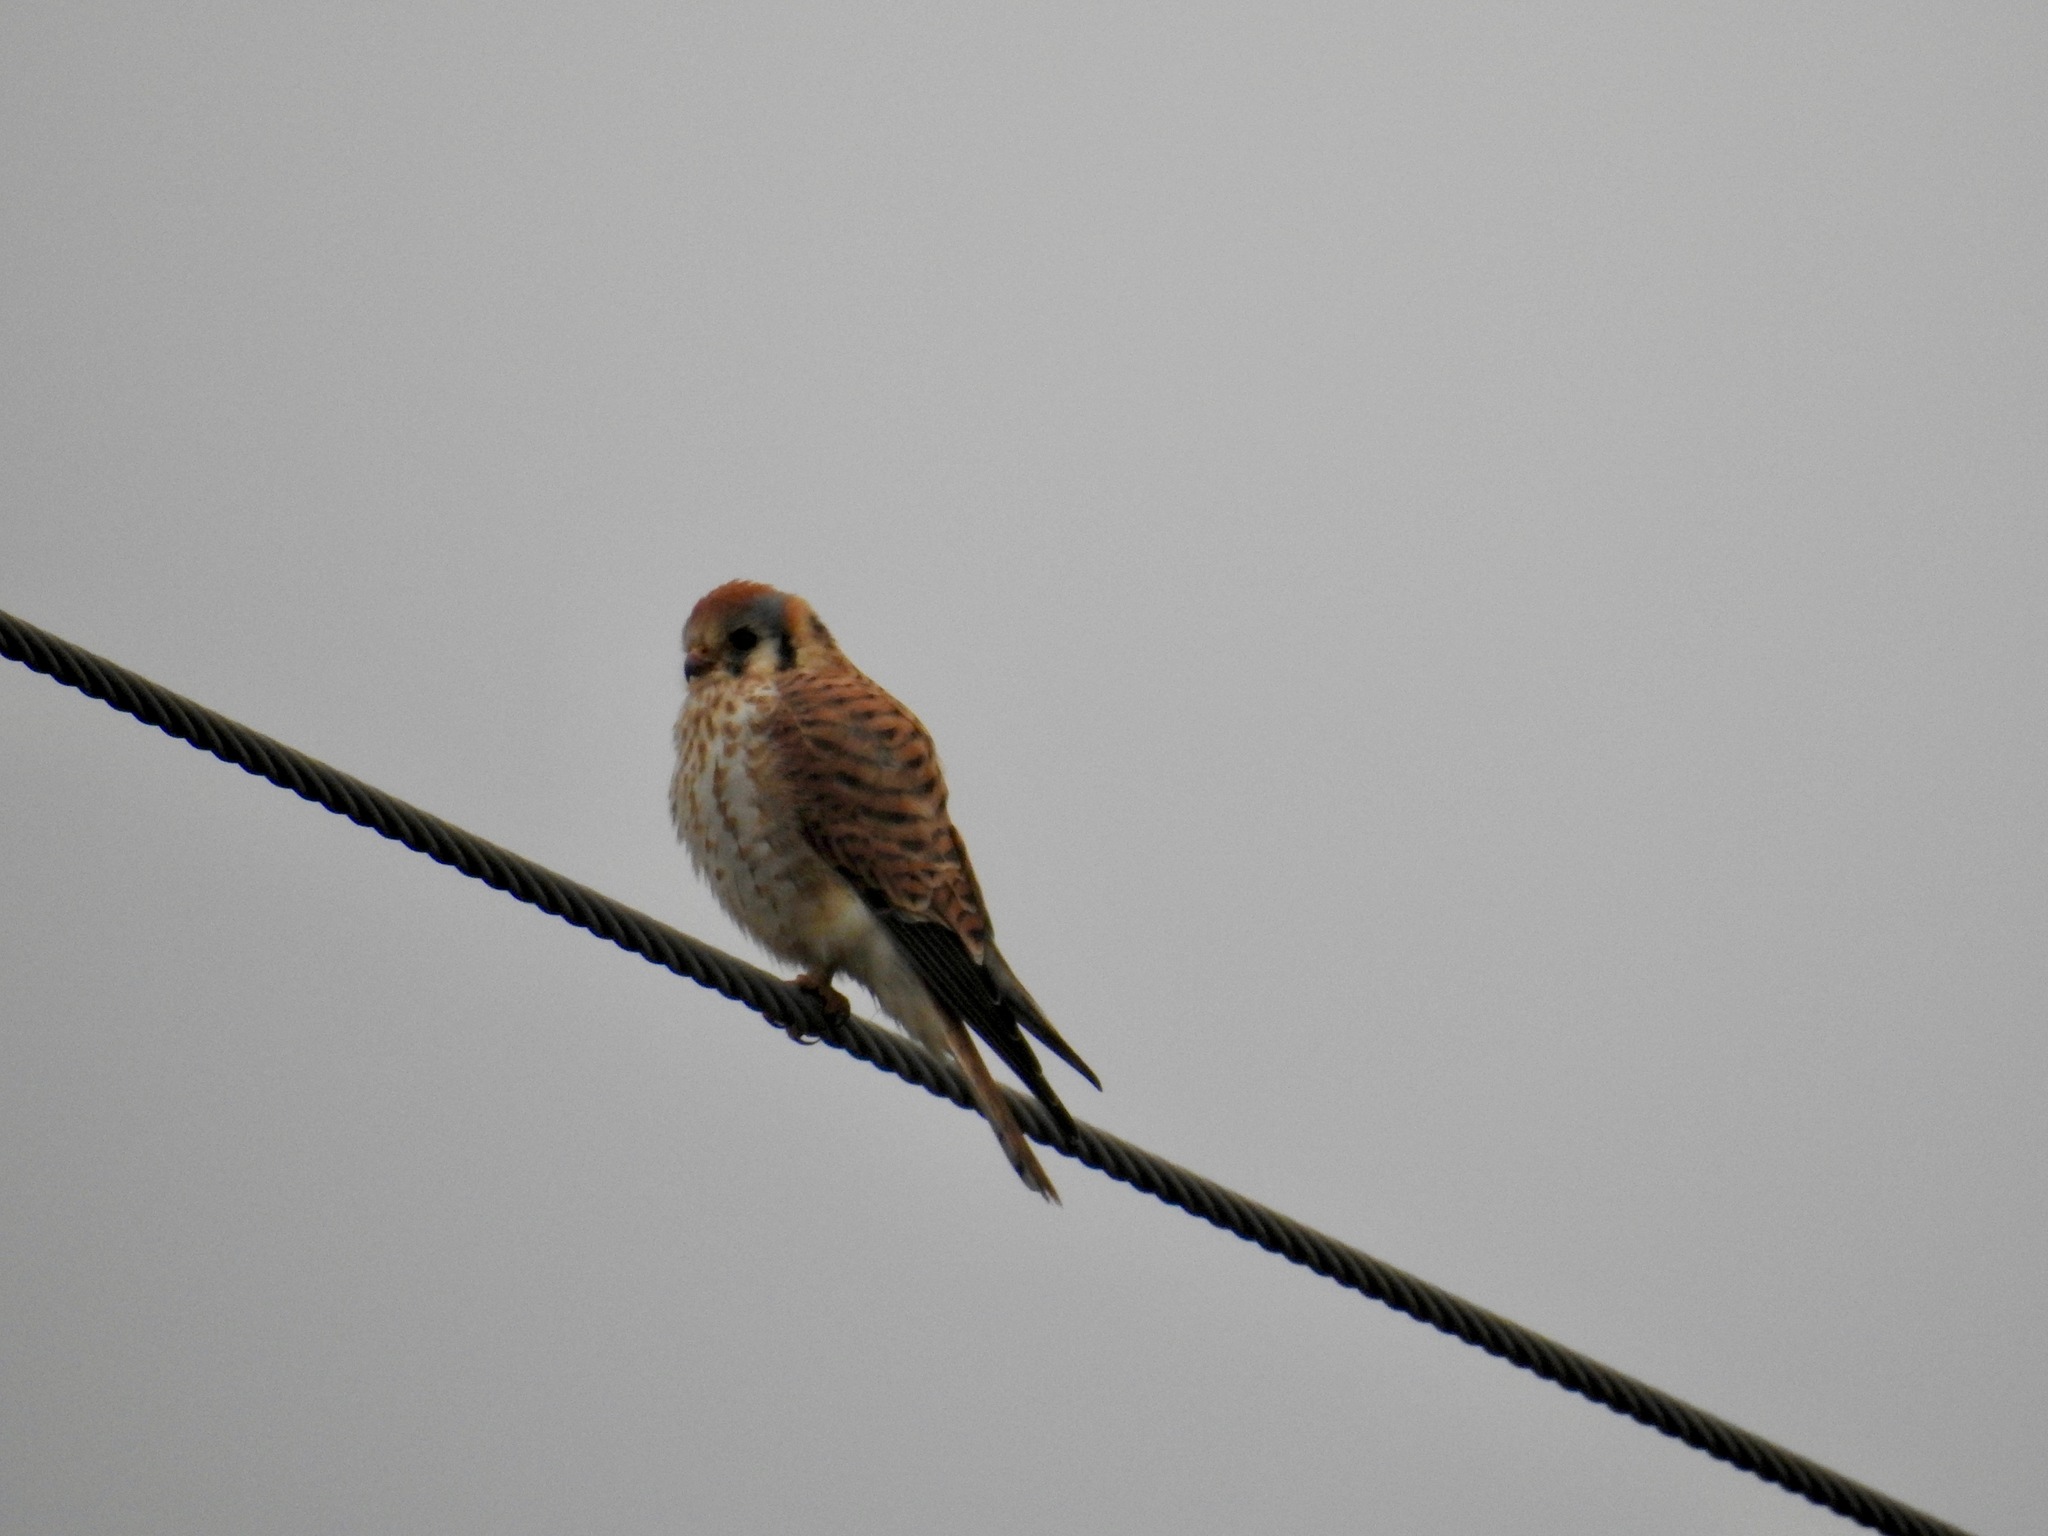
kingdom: Animalia
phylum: Chordata
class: Aves
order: Falconiformes
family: Falconidae
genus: Falco
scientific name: Falco sparverius
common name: American kestrel
